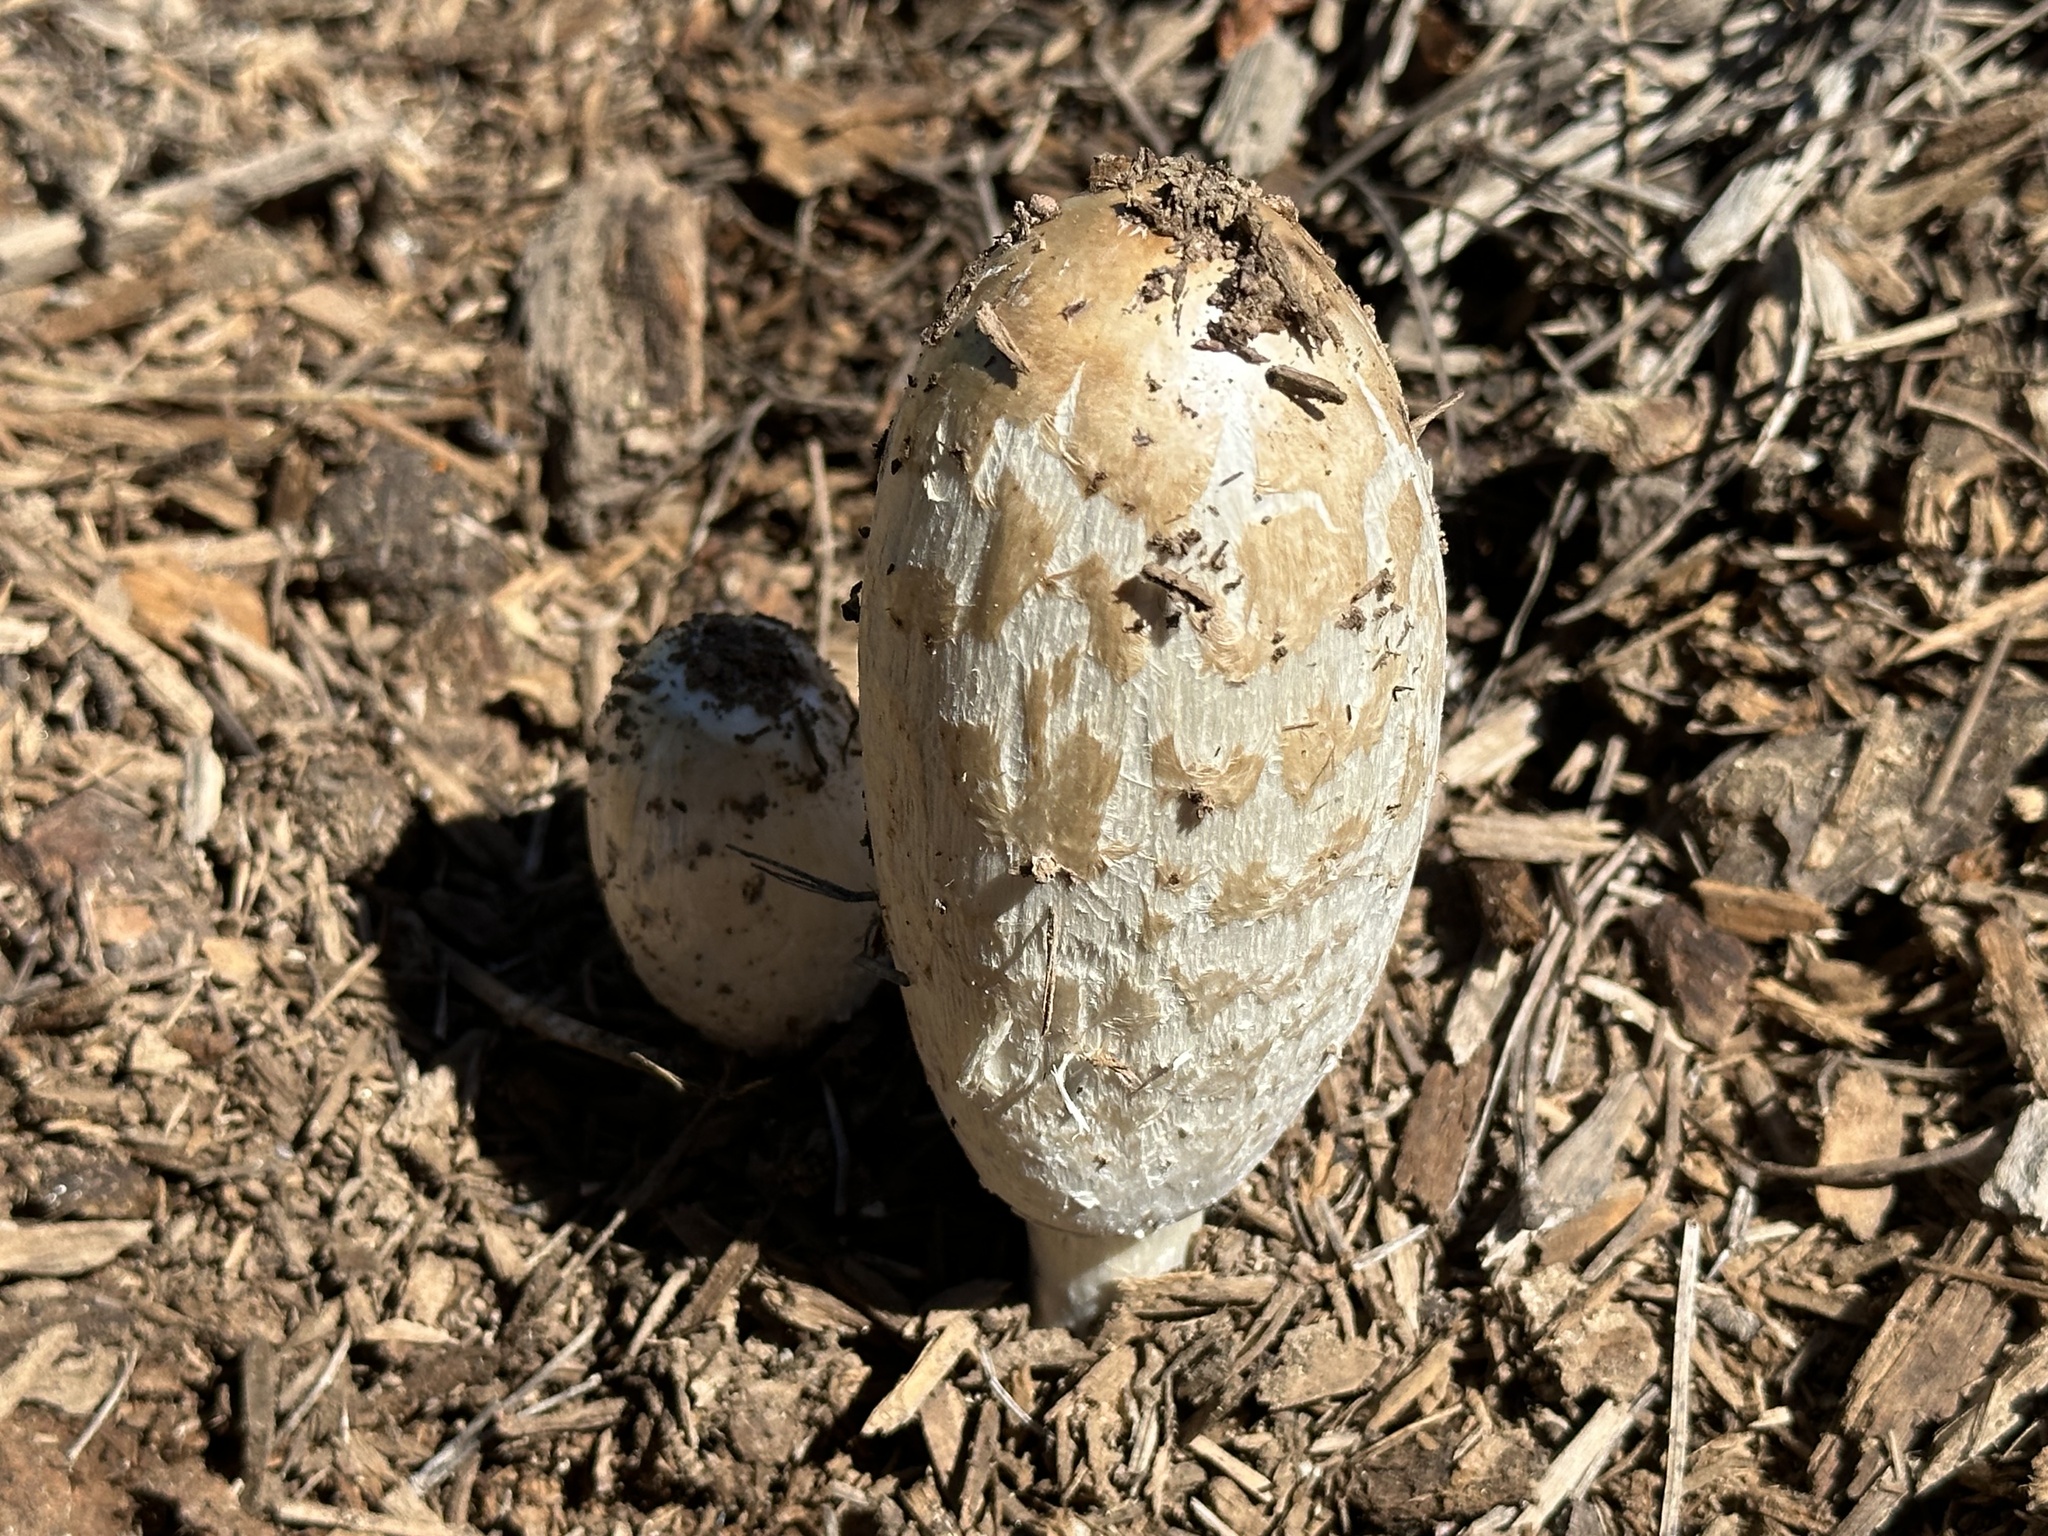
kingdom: Fungi
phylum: Basidiomycota
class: Agaricomycetes
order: Agaricales
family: Agaricaceae
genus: Coprinus
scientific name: Coprinus comatus
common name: Lawyer's wig
